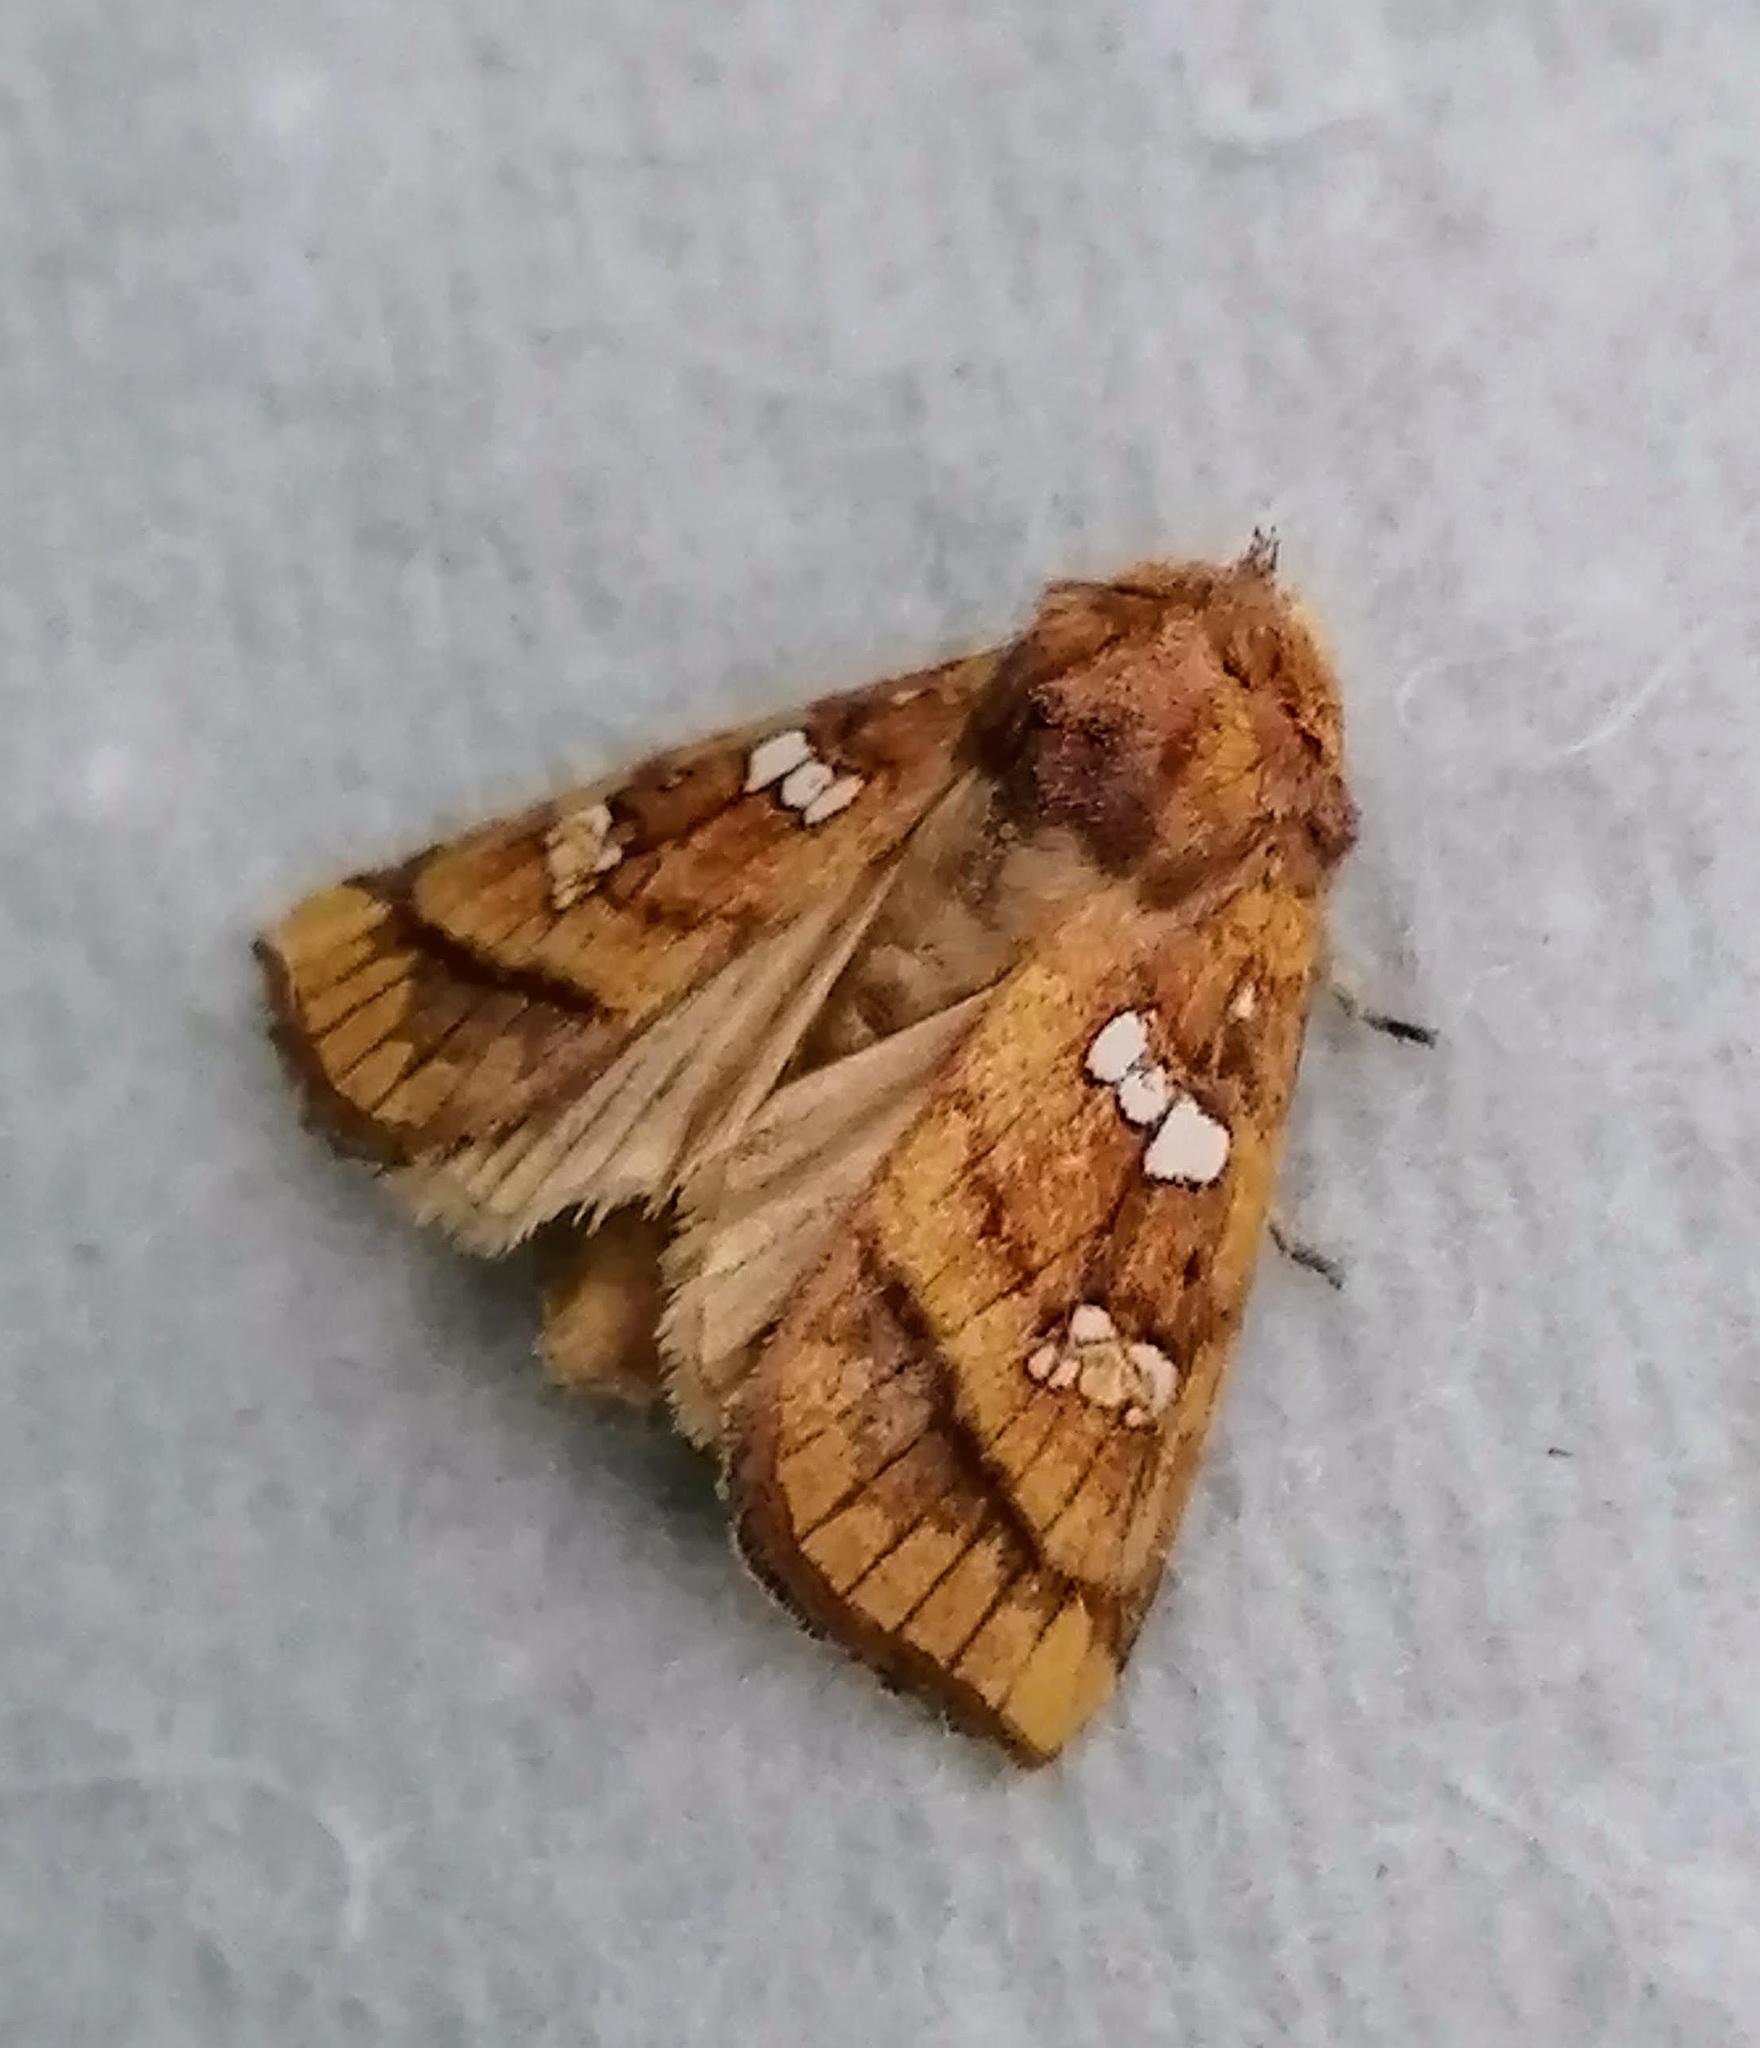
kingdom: Animalia
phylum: Arthropoda
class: Insecta
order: Lepidoptera
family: Noctuidae
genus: Papaipema
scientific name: Papaipema pterisii
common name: Bracken borer moth
